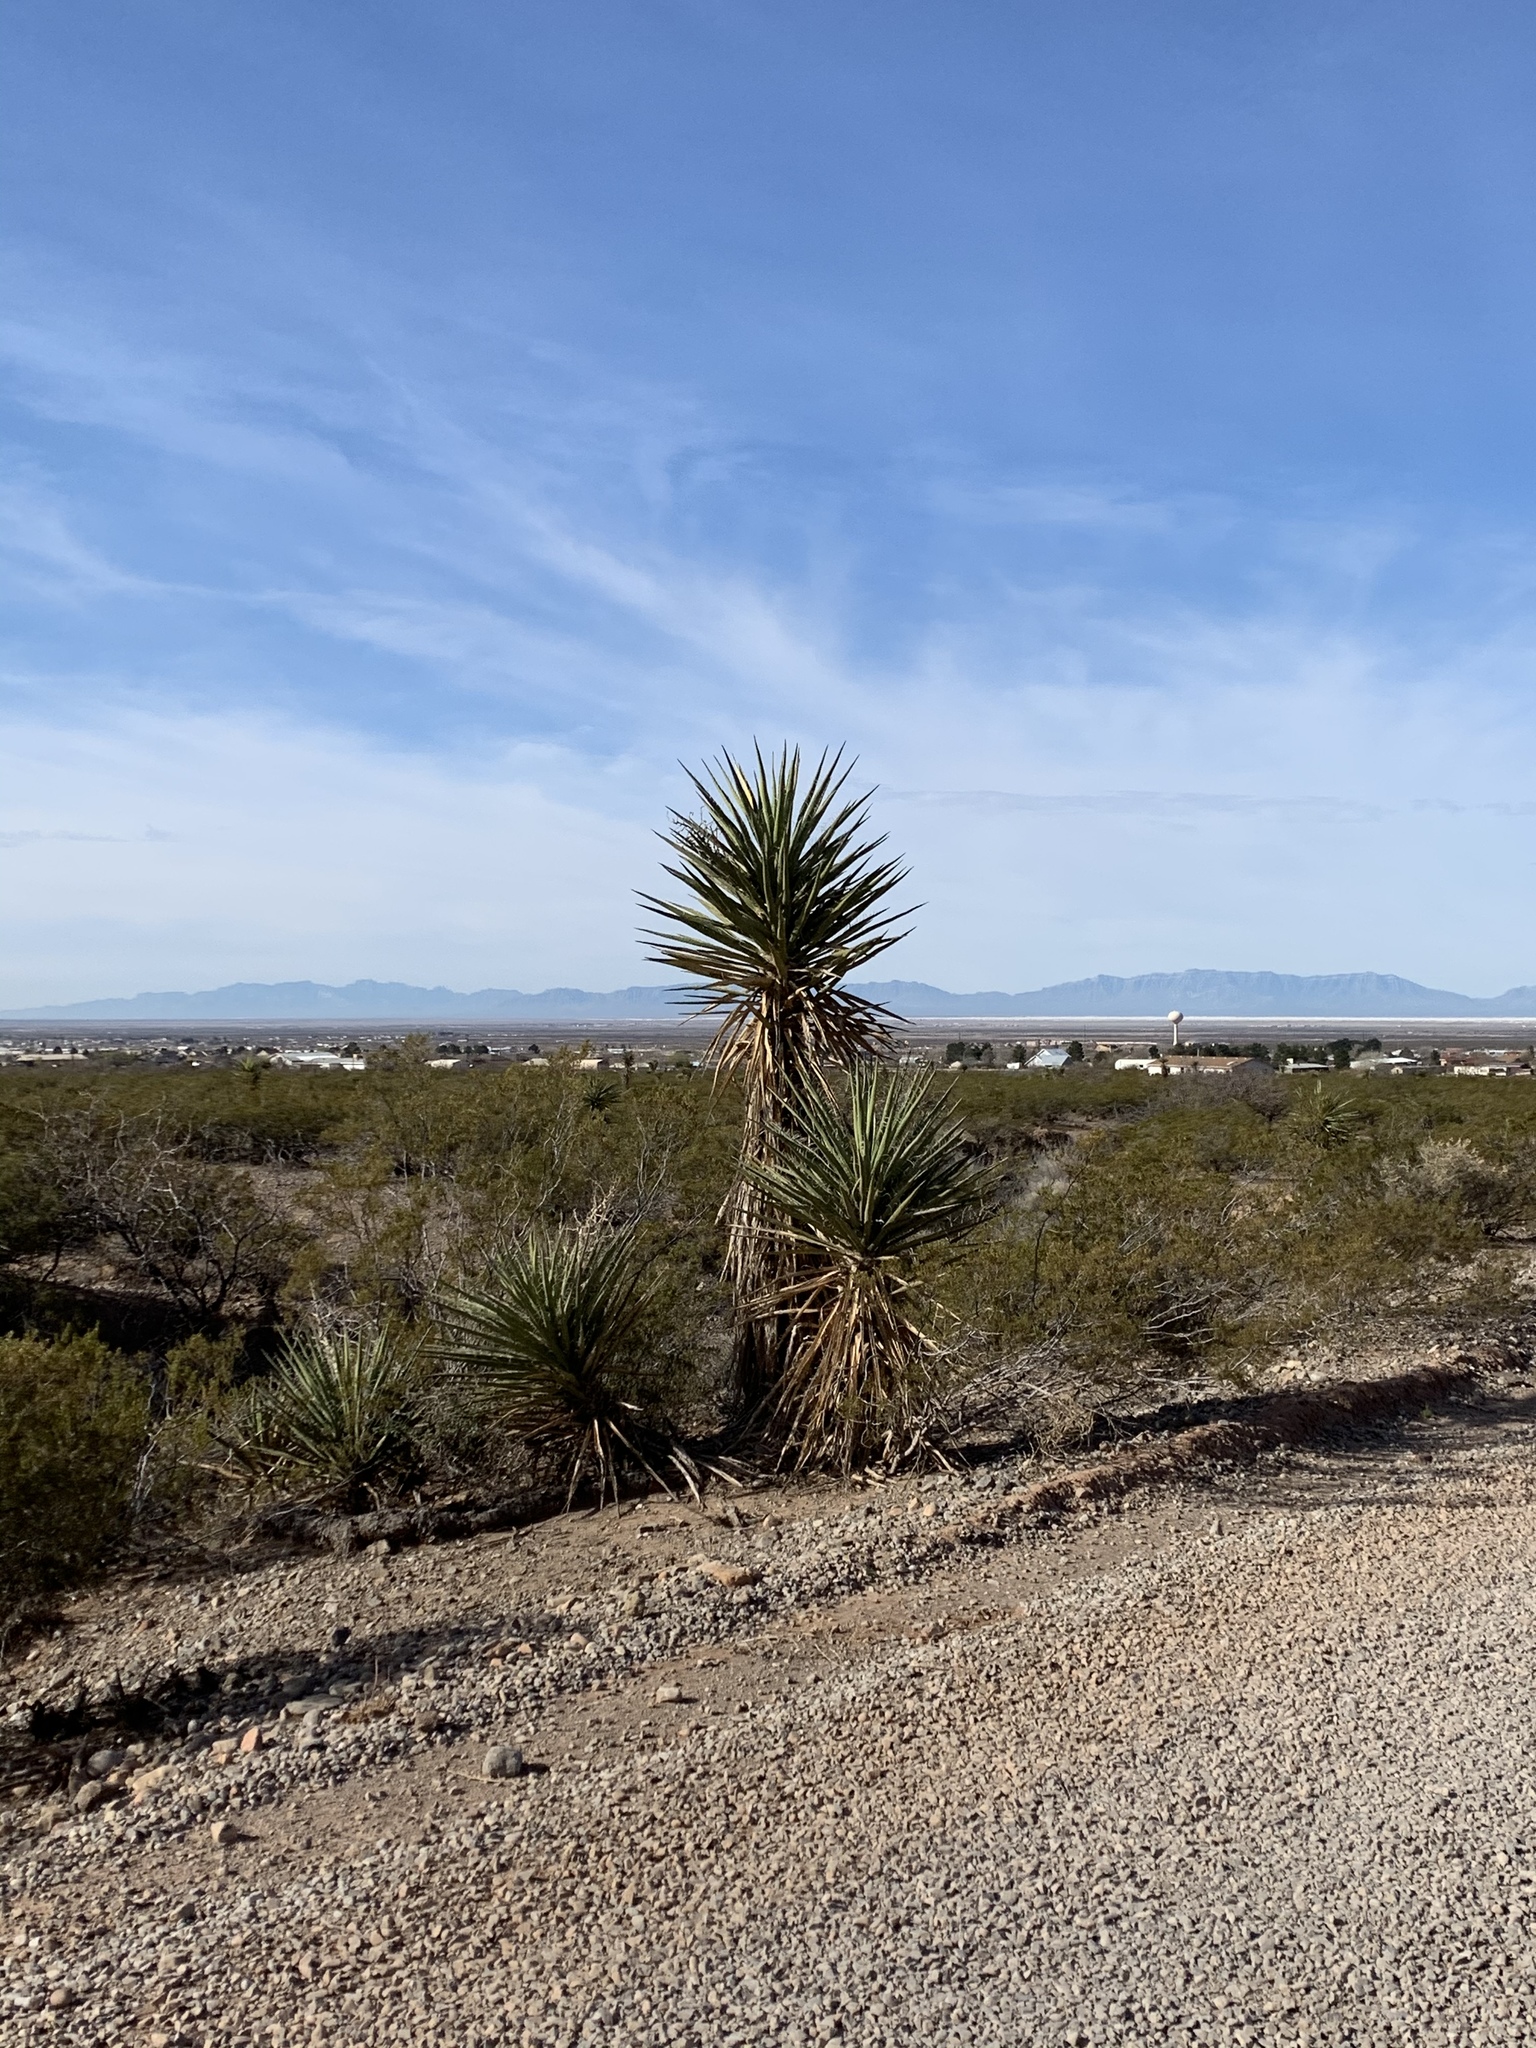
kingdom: Plantae
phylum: Tracheophyta
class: Liliopsida
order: Asparagales
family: Asparagaceae
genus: Yucca
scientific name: Yucca treculiana
